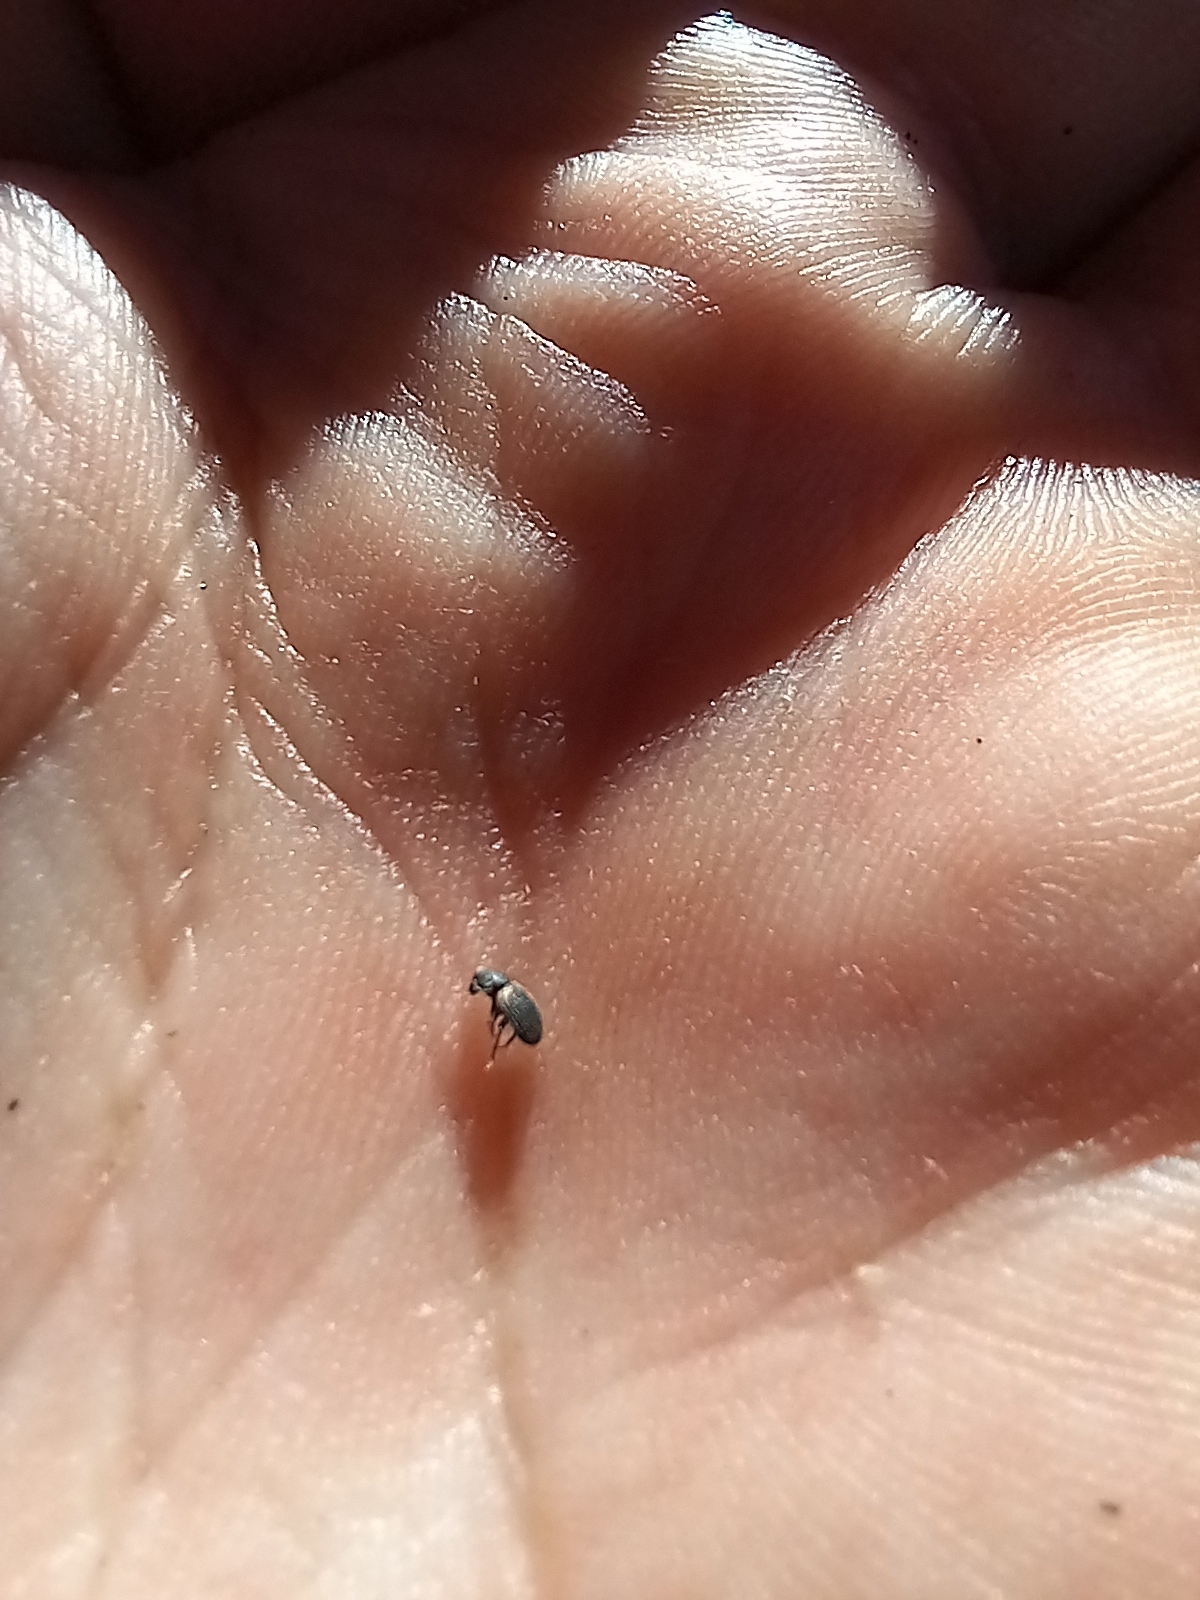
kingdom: Animalia
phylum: Arthropoda
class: Insecta
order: Coleoptera
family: Phycosecidae
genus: Phycosecis
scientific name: Phycosecis
